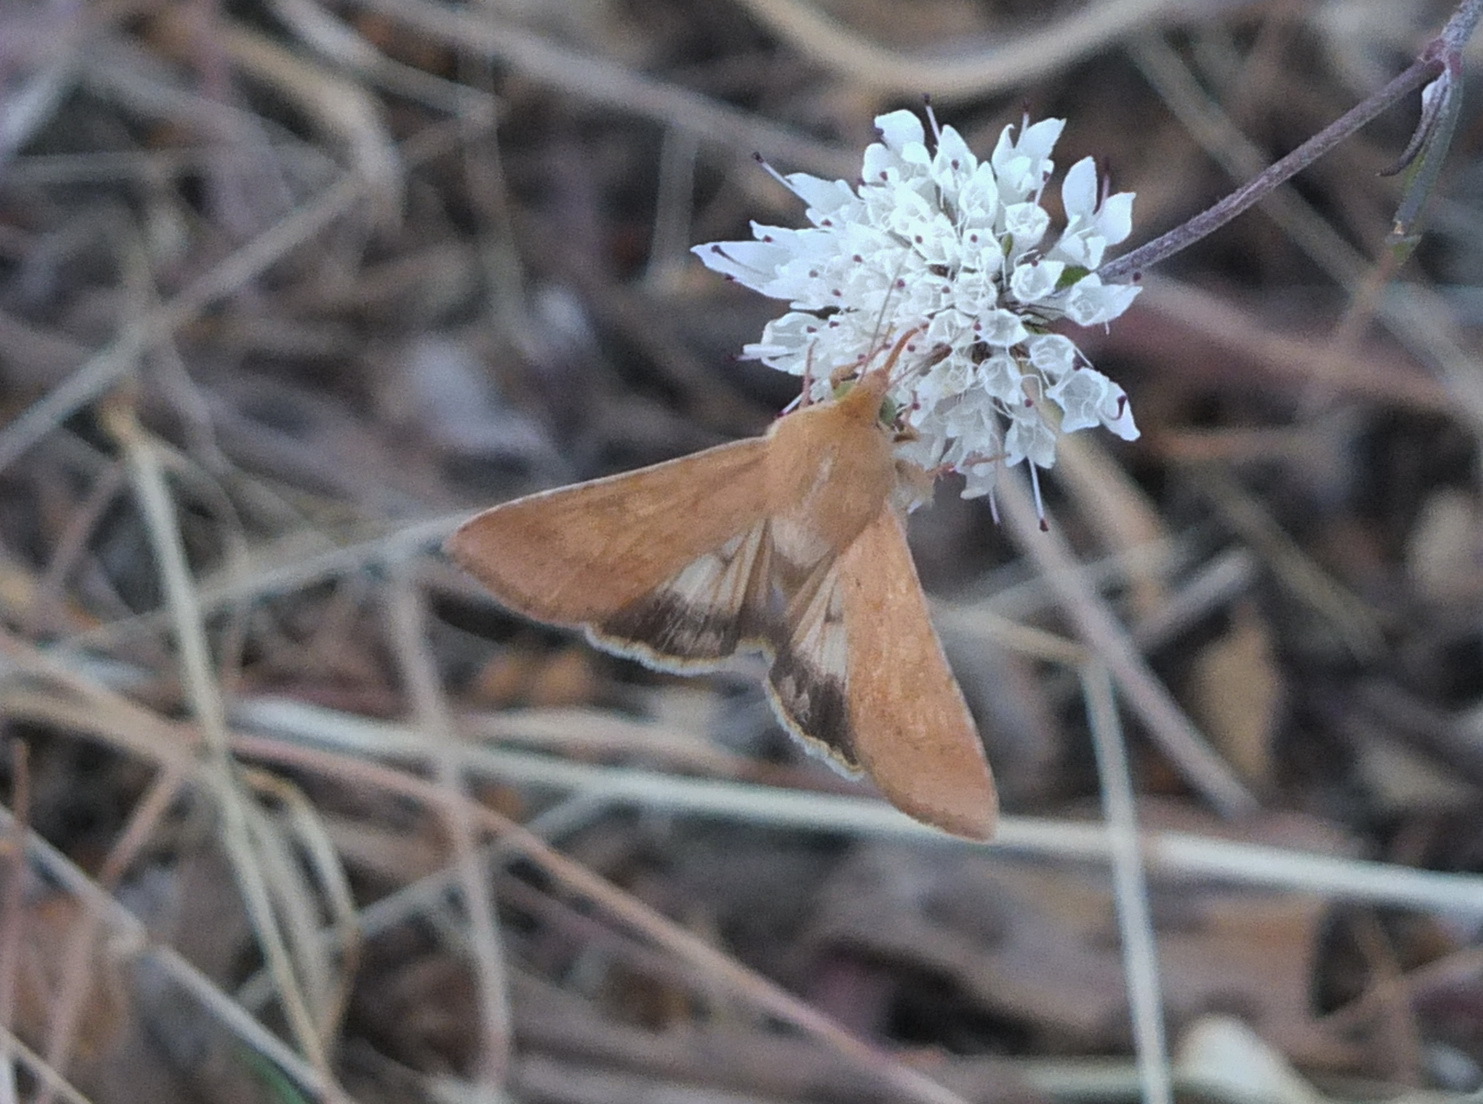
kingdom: Animalia
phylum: Arthropoda
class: Insecta
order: Lepidoptera
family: Noctuidae
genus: Helicoverpa
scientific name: Helicoverpa armigera
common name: Cotton bollworm
